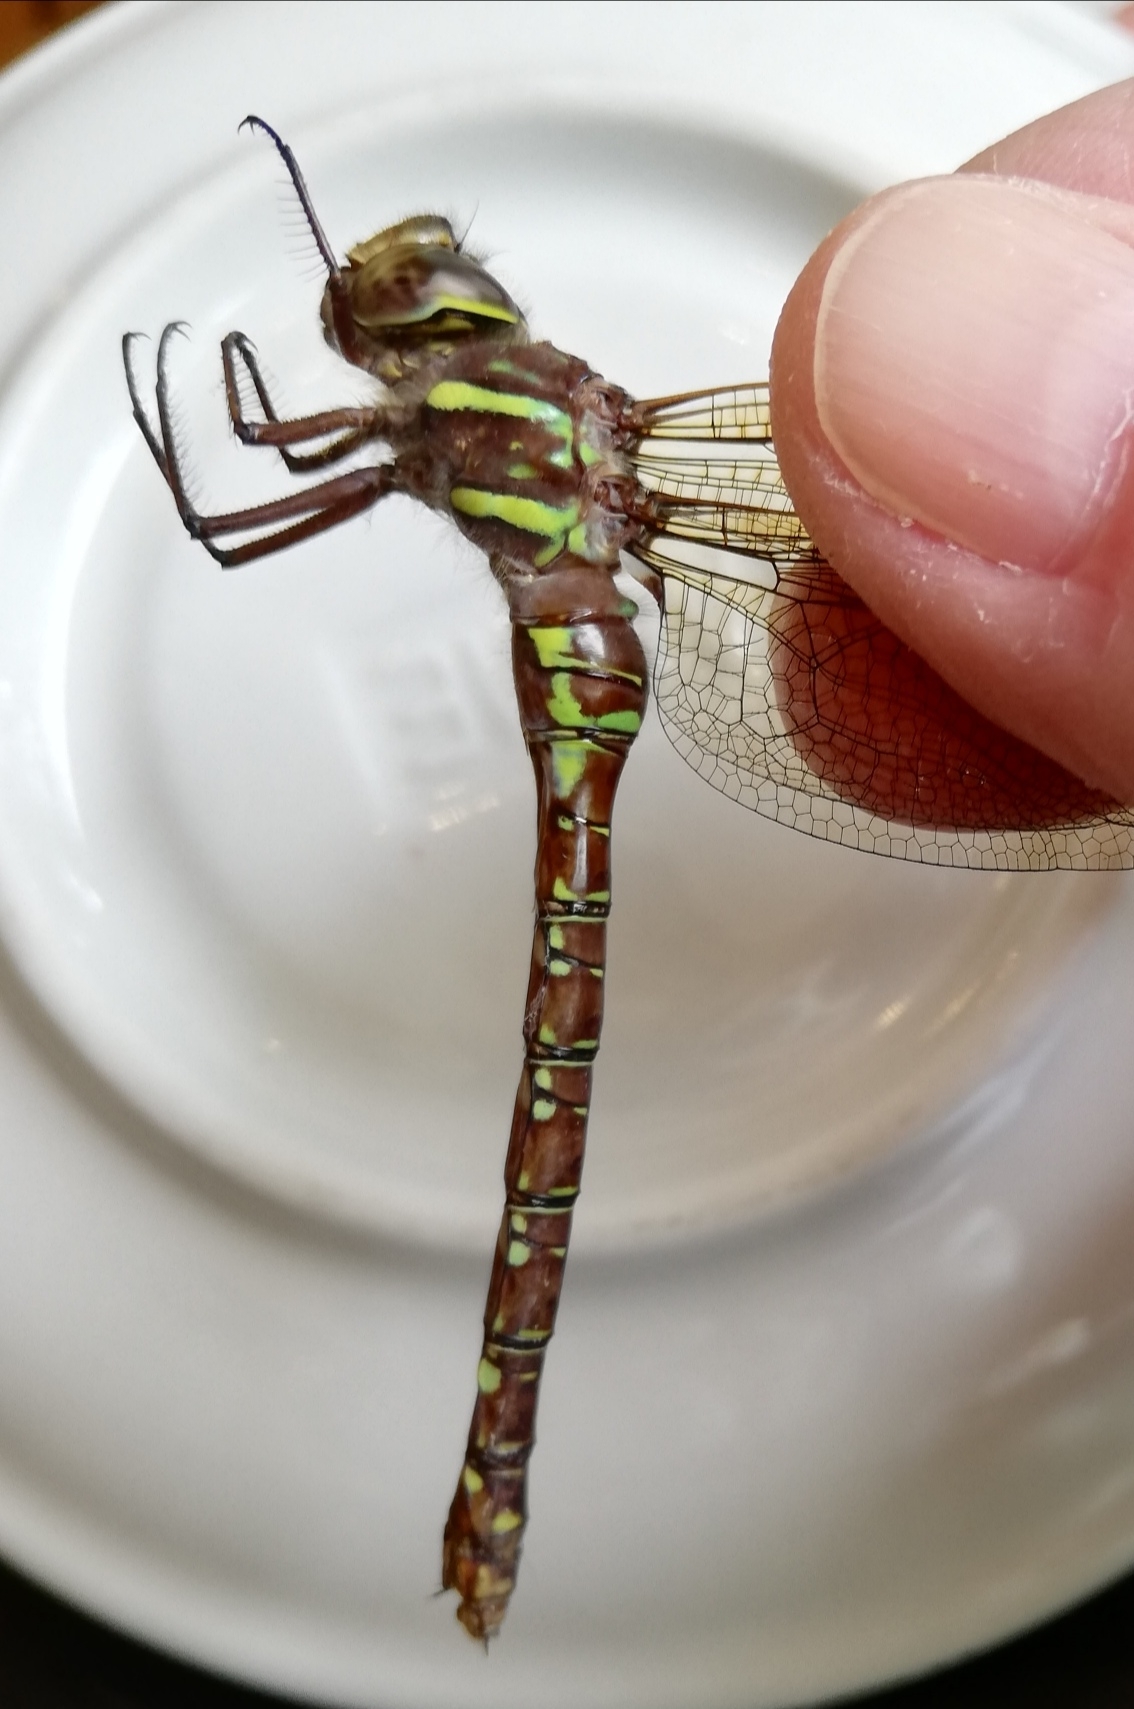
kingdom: Animalia
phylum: Arthropoda
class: Insecta
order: Odonata
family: Aeshnidae
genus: Aeshna
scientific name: Aeshna umbrosa
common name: Shadow darner
